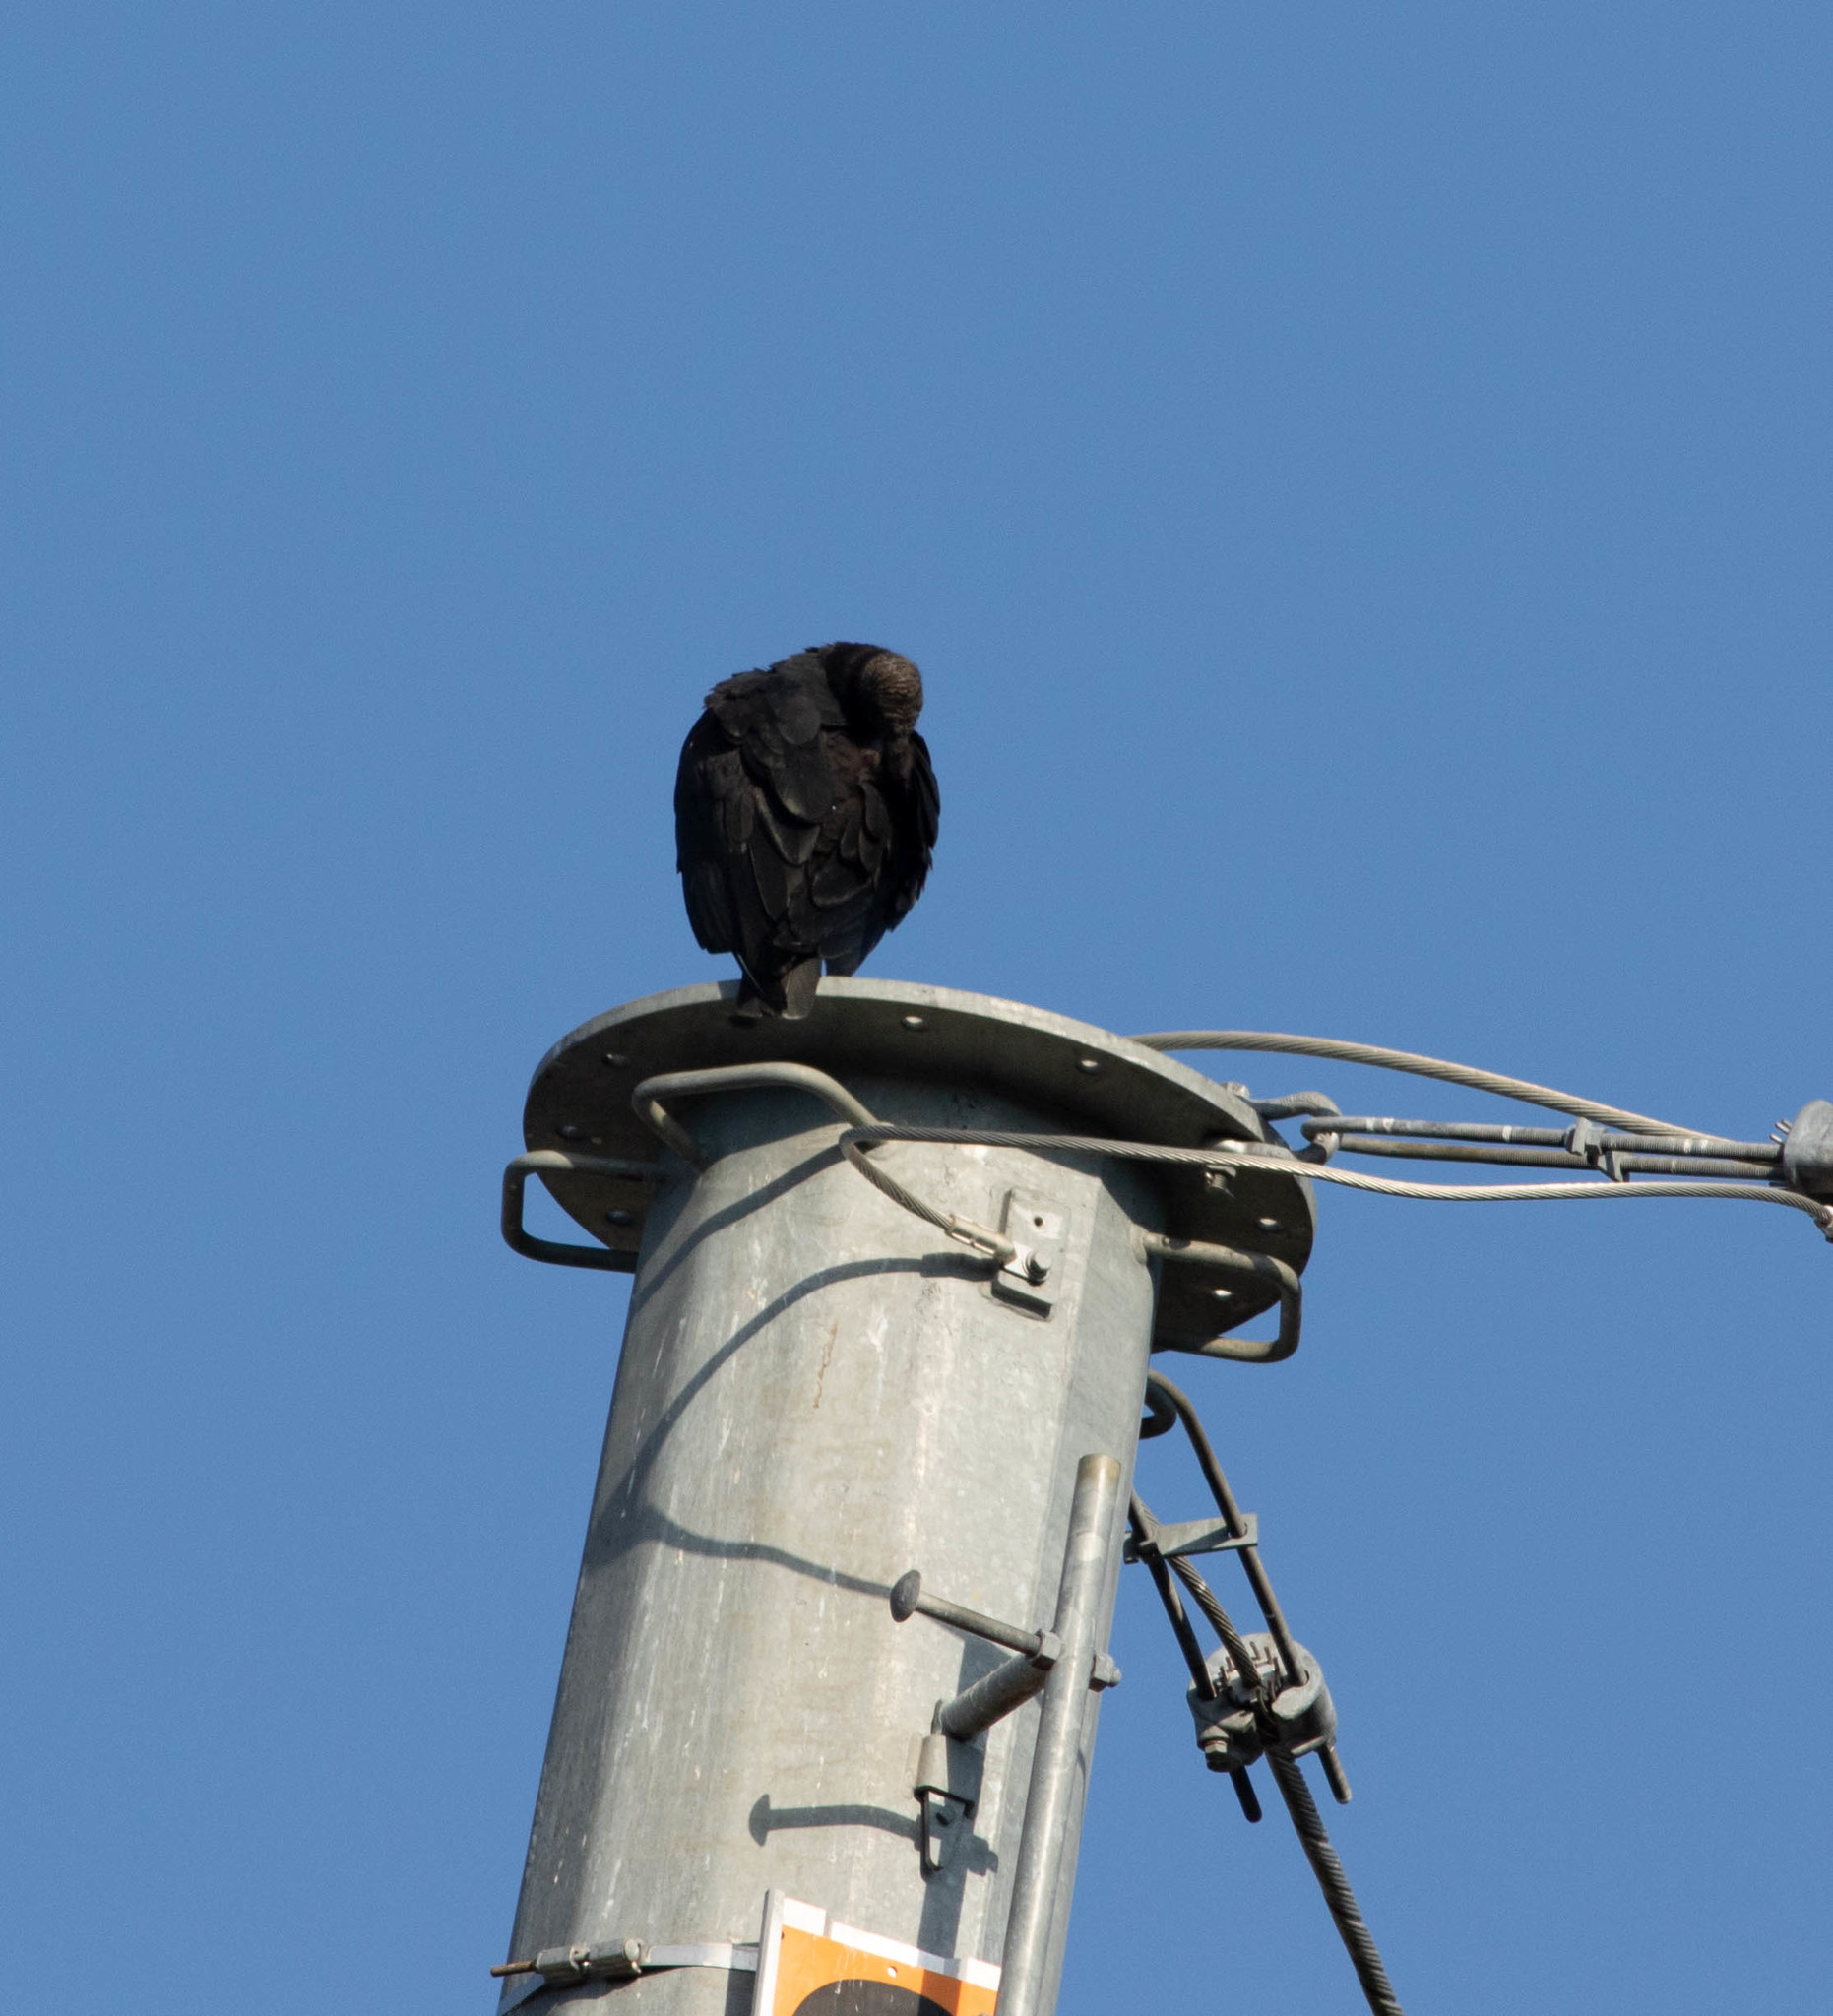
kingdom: Animalia
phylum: Chordata
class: Aves
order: Accipitriformes
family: Cathartidae
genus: Coragyps
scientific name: Coragyps atratus
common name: Black vulture
